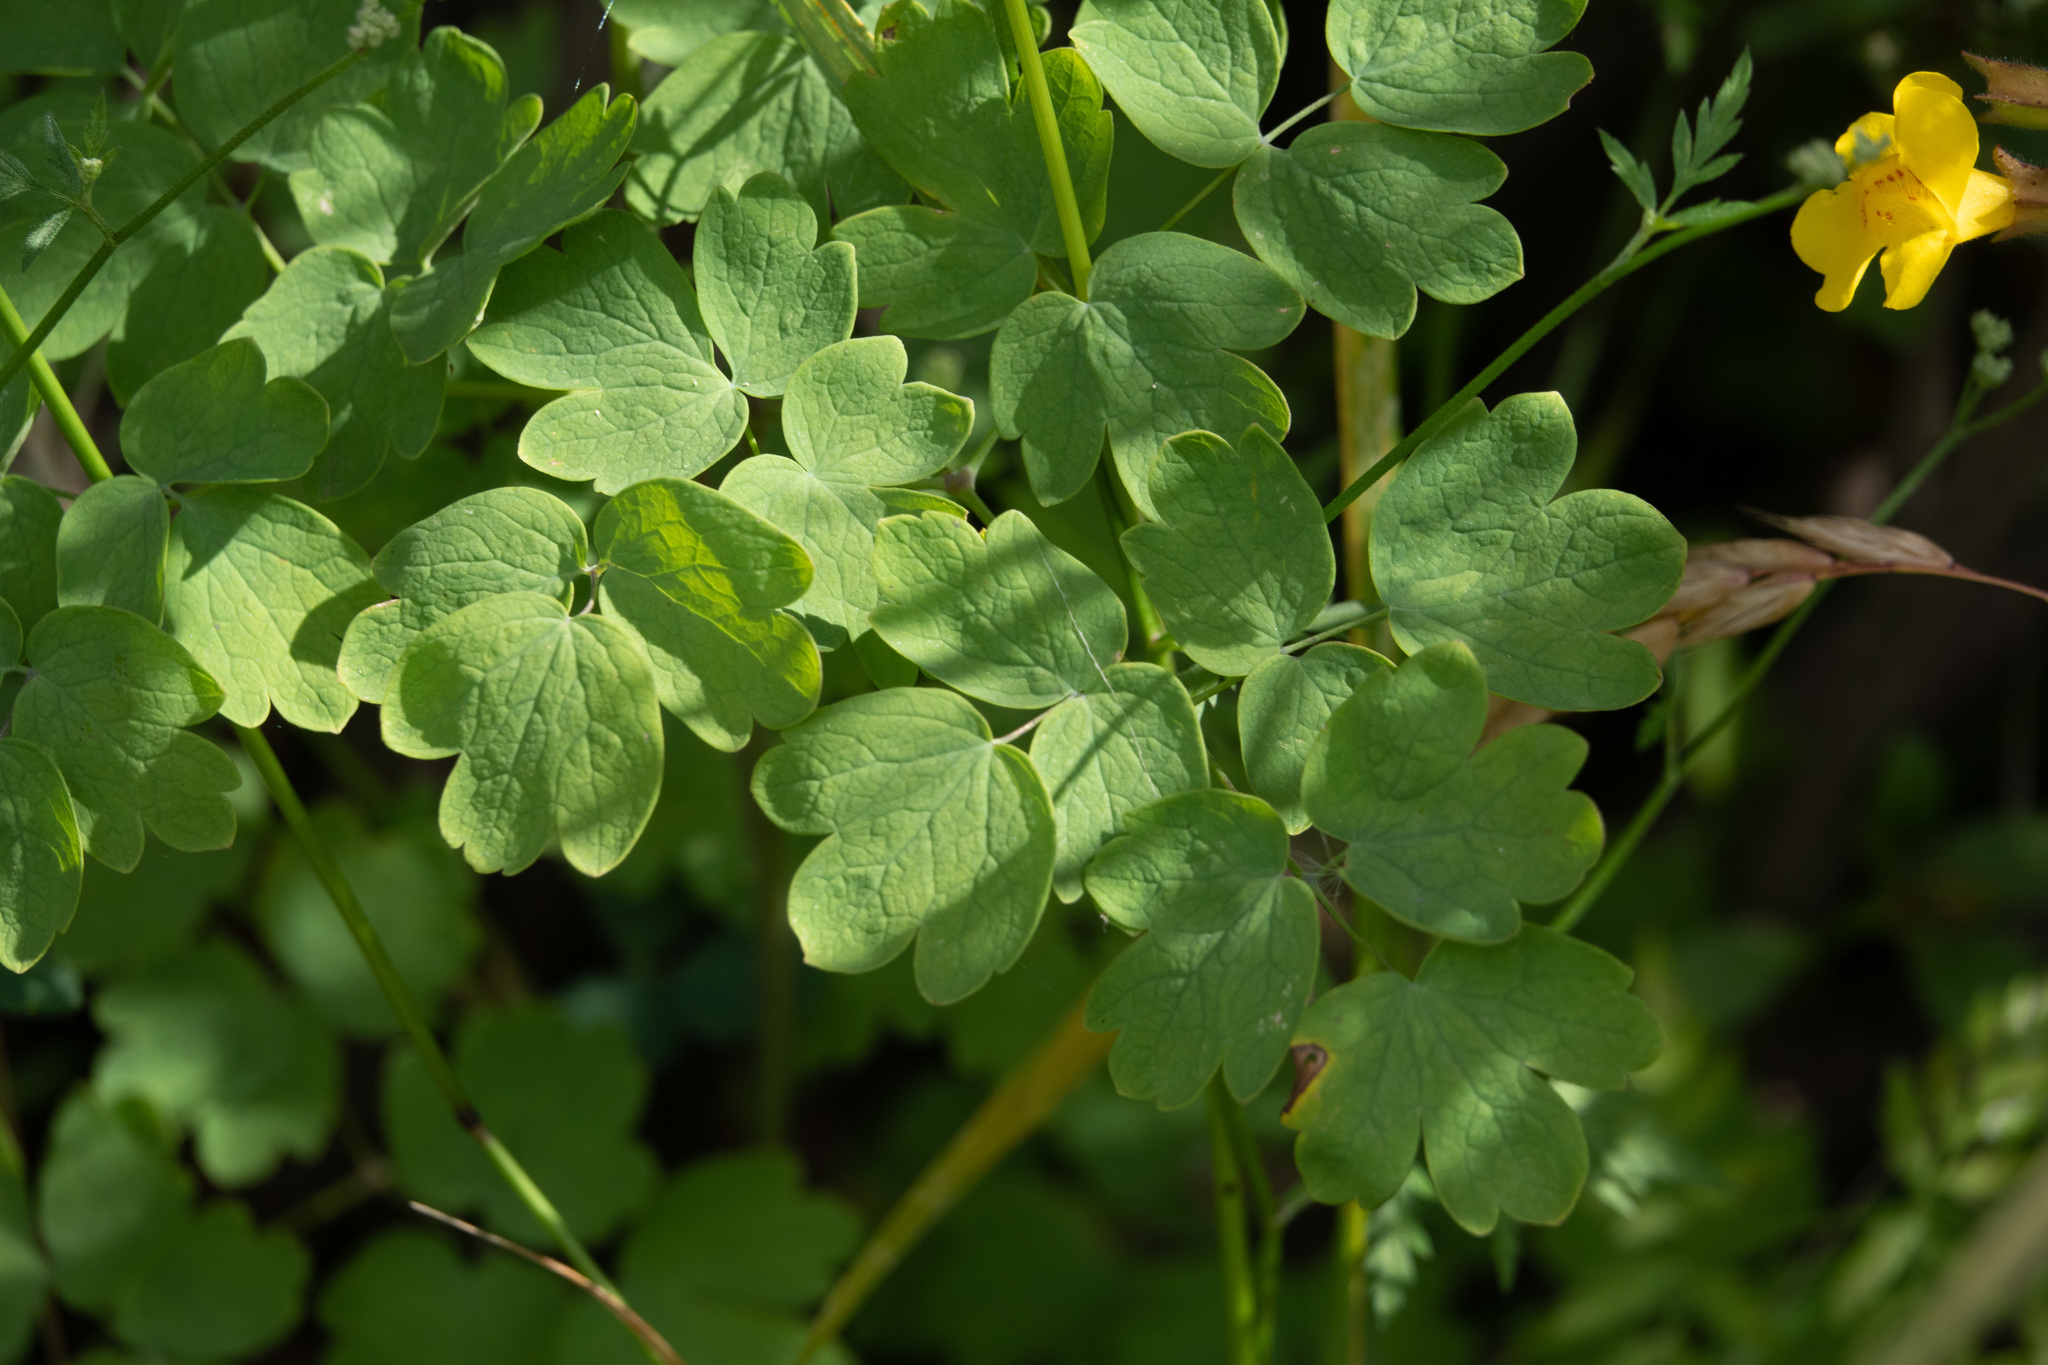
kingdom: Plantae
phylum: Tracheophyta
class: Magnoliopsida
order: Ranunculales
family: Ranunculaceae
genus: Thalictrum
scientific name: Thalictrum fendleri
